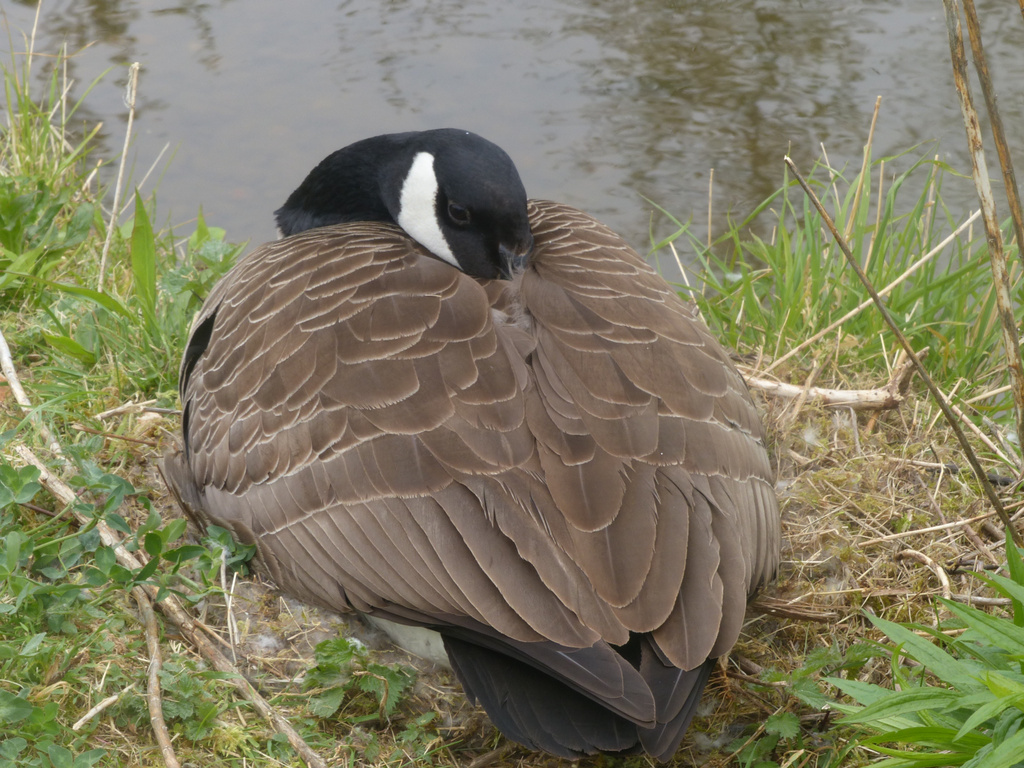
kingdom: Animalia
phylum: Chordata
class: Aves
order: Anseriformes
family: Anatidae
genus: Branta
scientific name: Branta canadensis
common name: Canada goose
